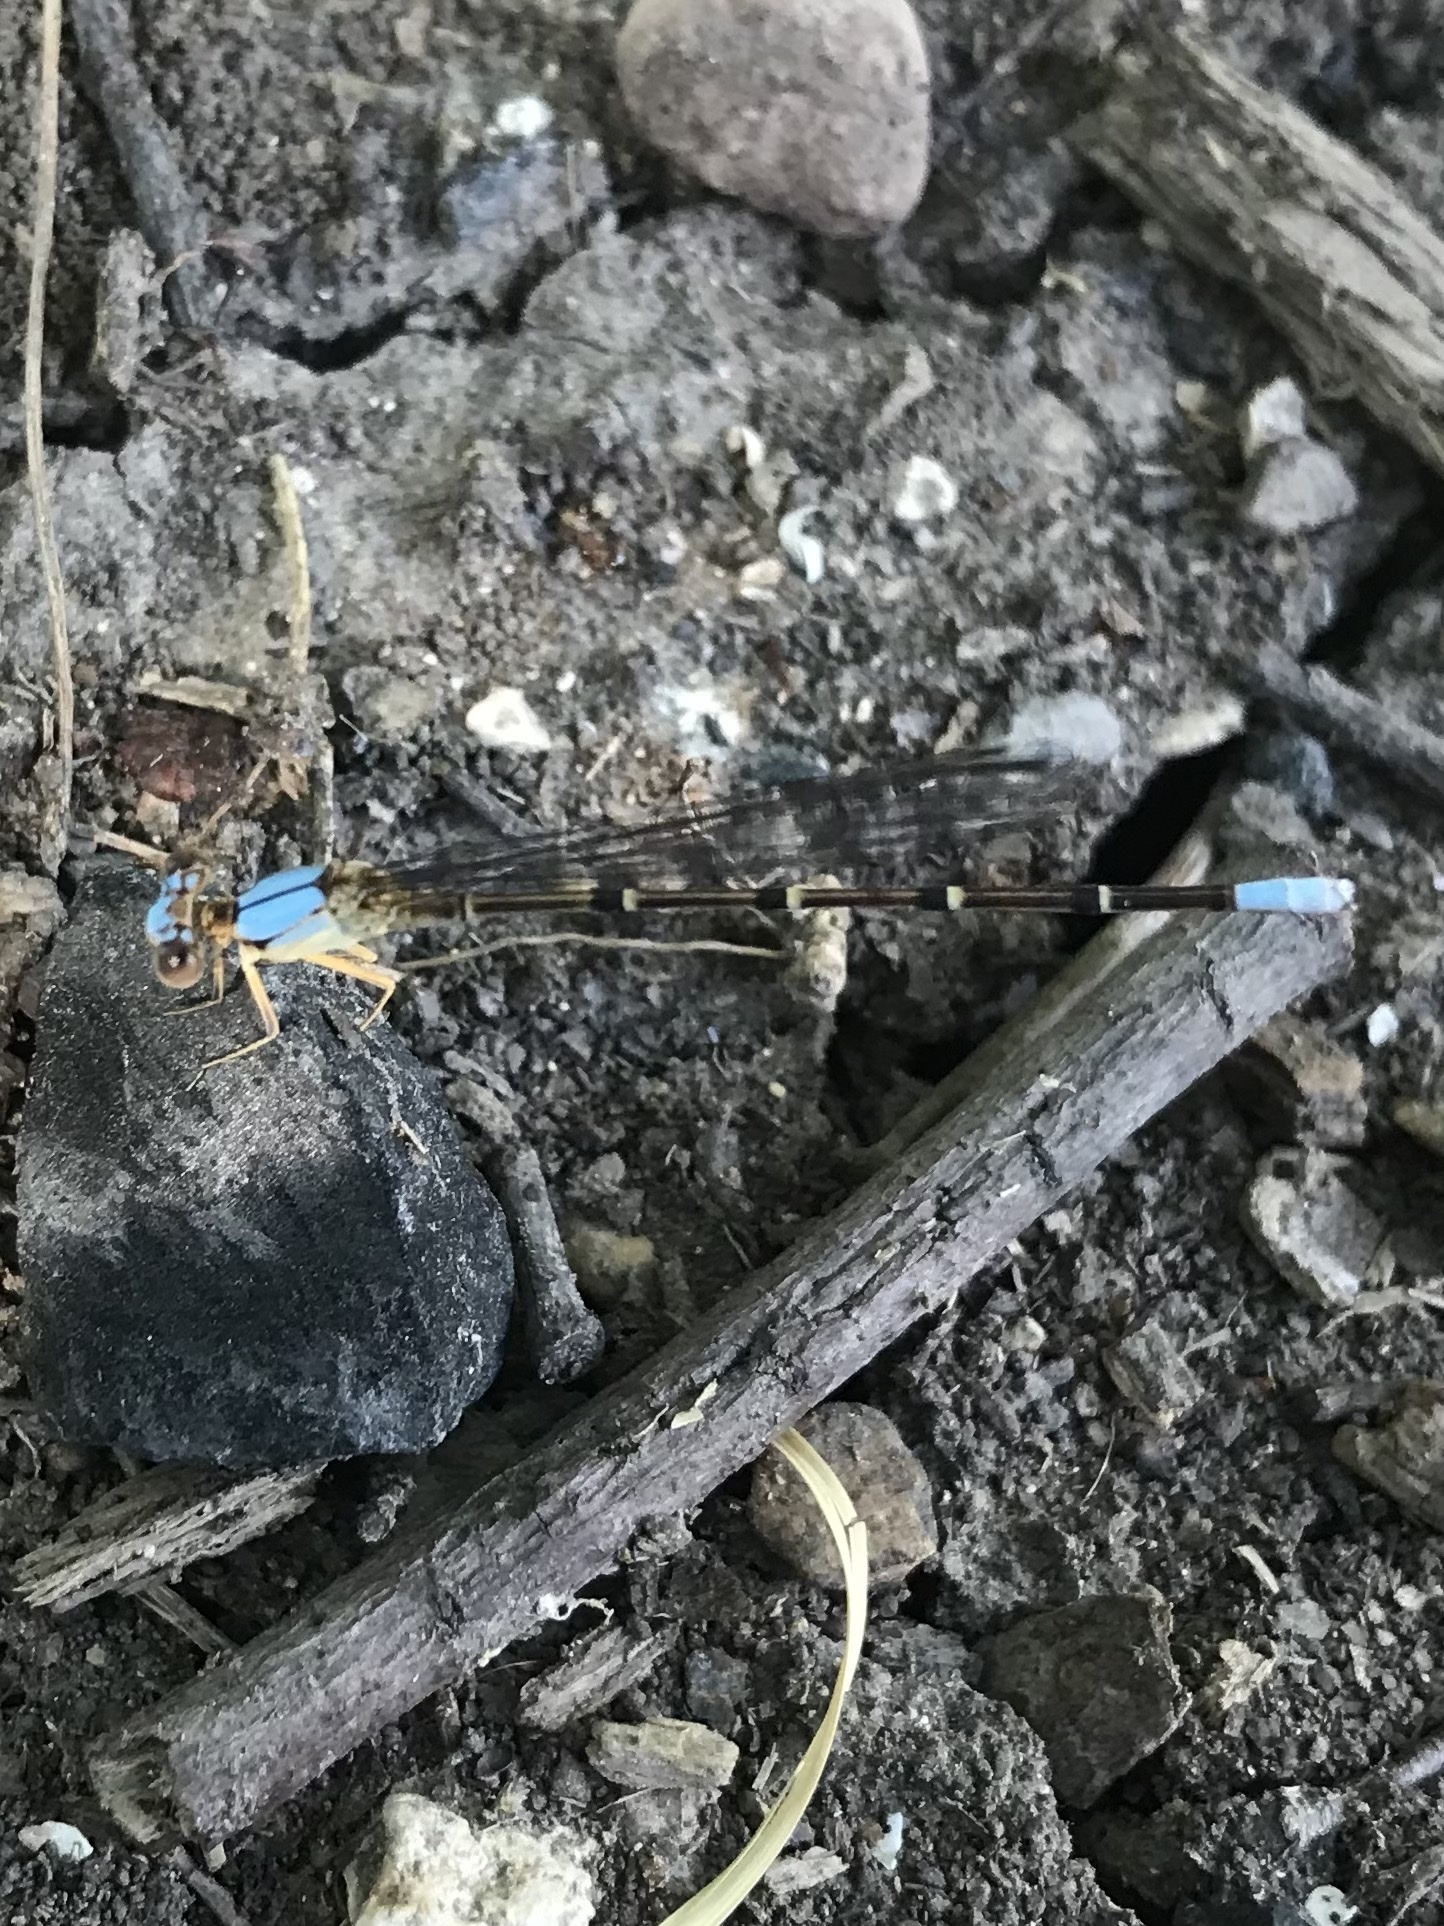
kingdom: Animalia
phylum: Arthropoda
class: Insecta
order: Odonata
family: Coenagrionidae
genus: Argia
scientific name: Argia apicalis
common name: Blue-fronted dancer
